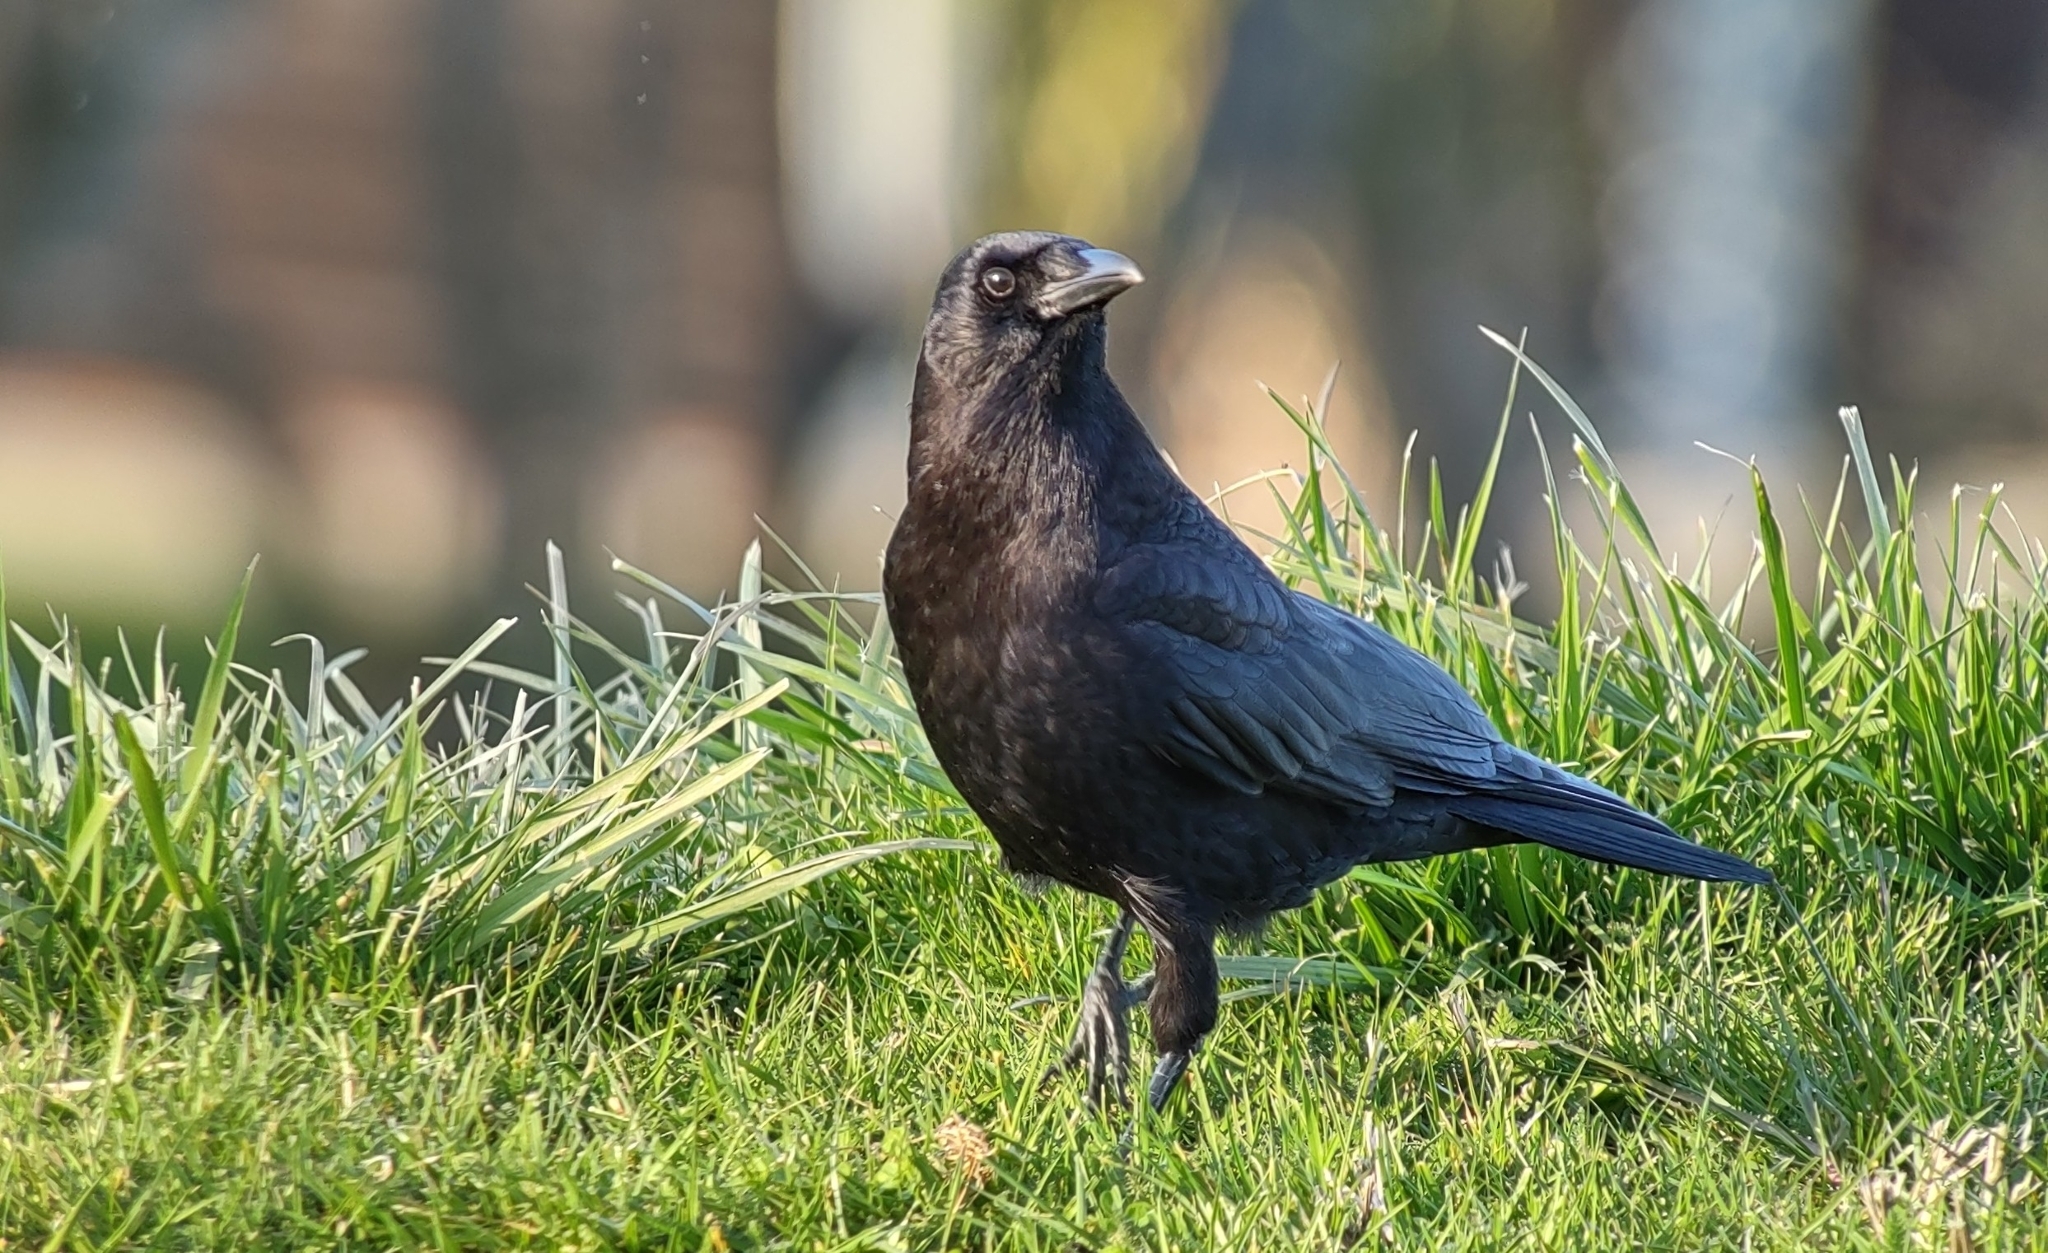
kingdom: Animalia
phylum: Chordata
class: Aves
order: Passeriformes
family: Corvidae
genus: Corvus
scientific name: Corvus brachyrhynchos
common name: American crow
